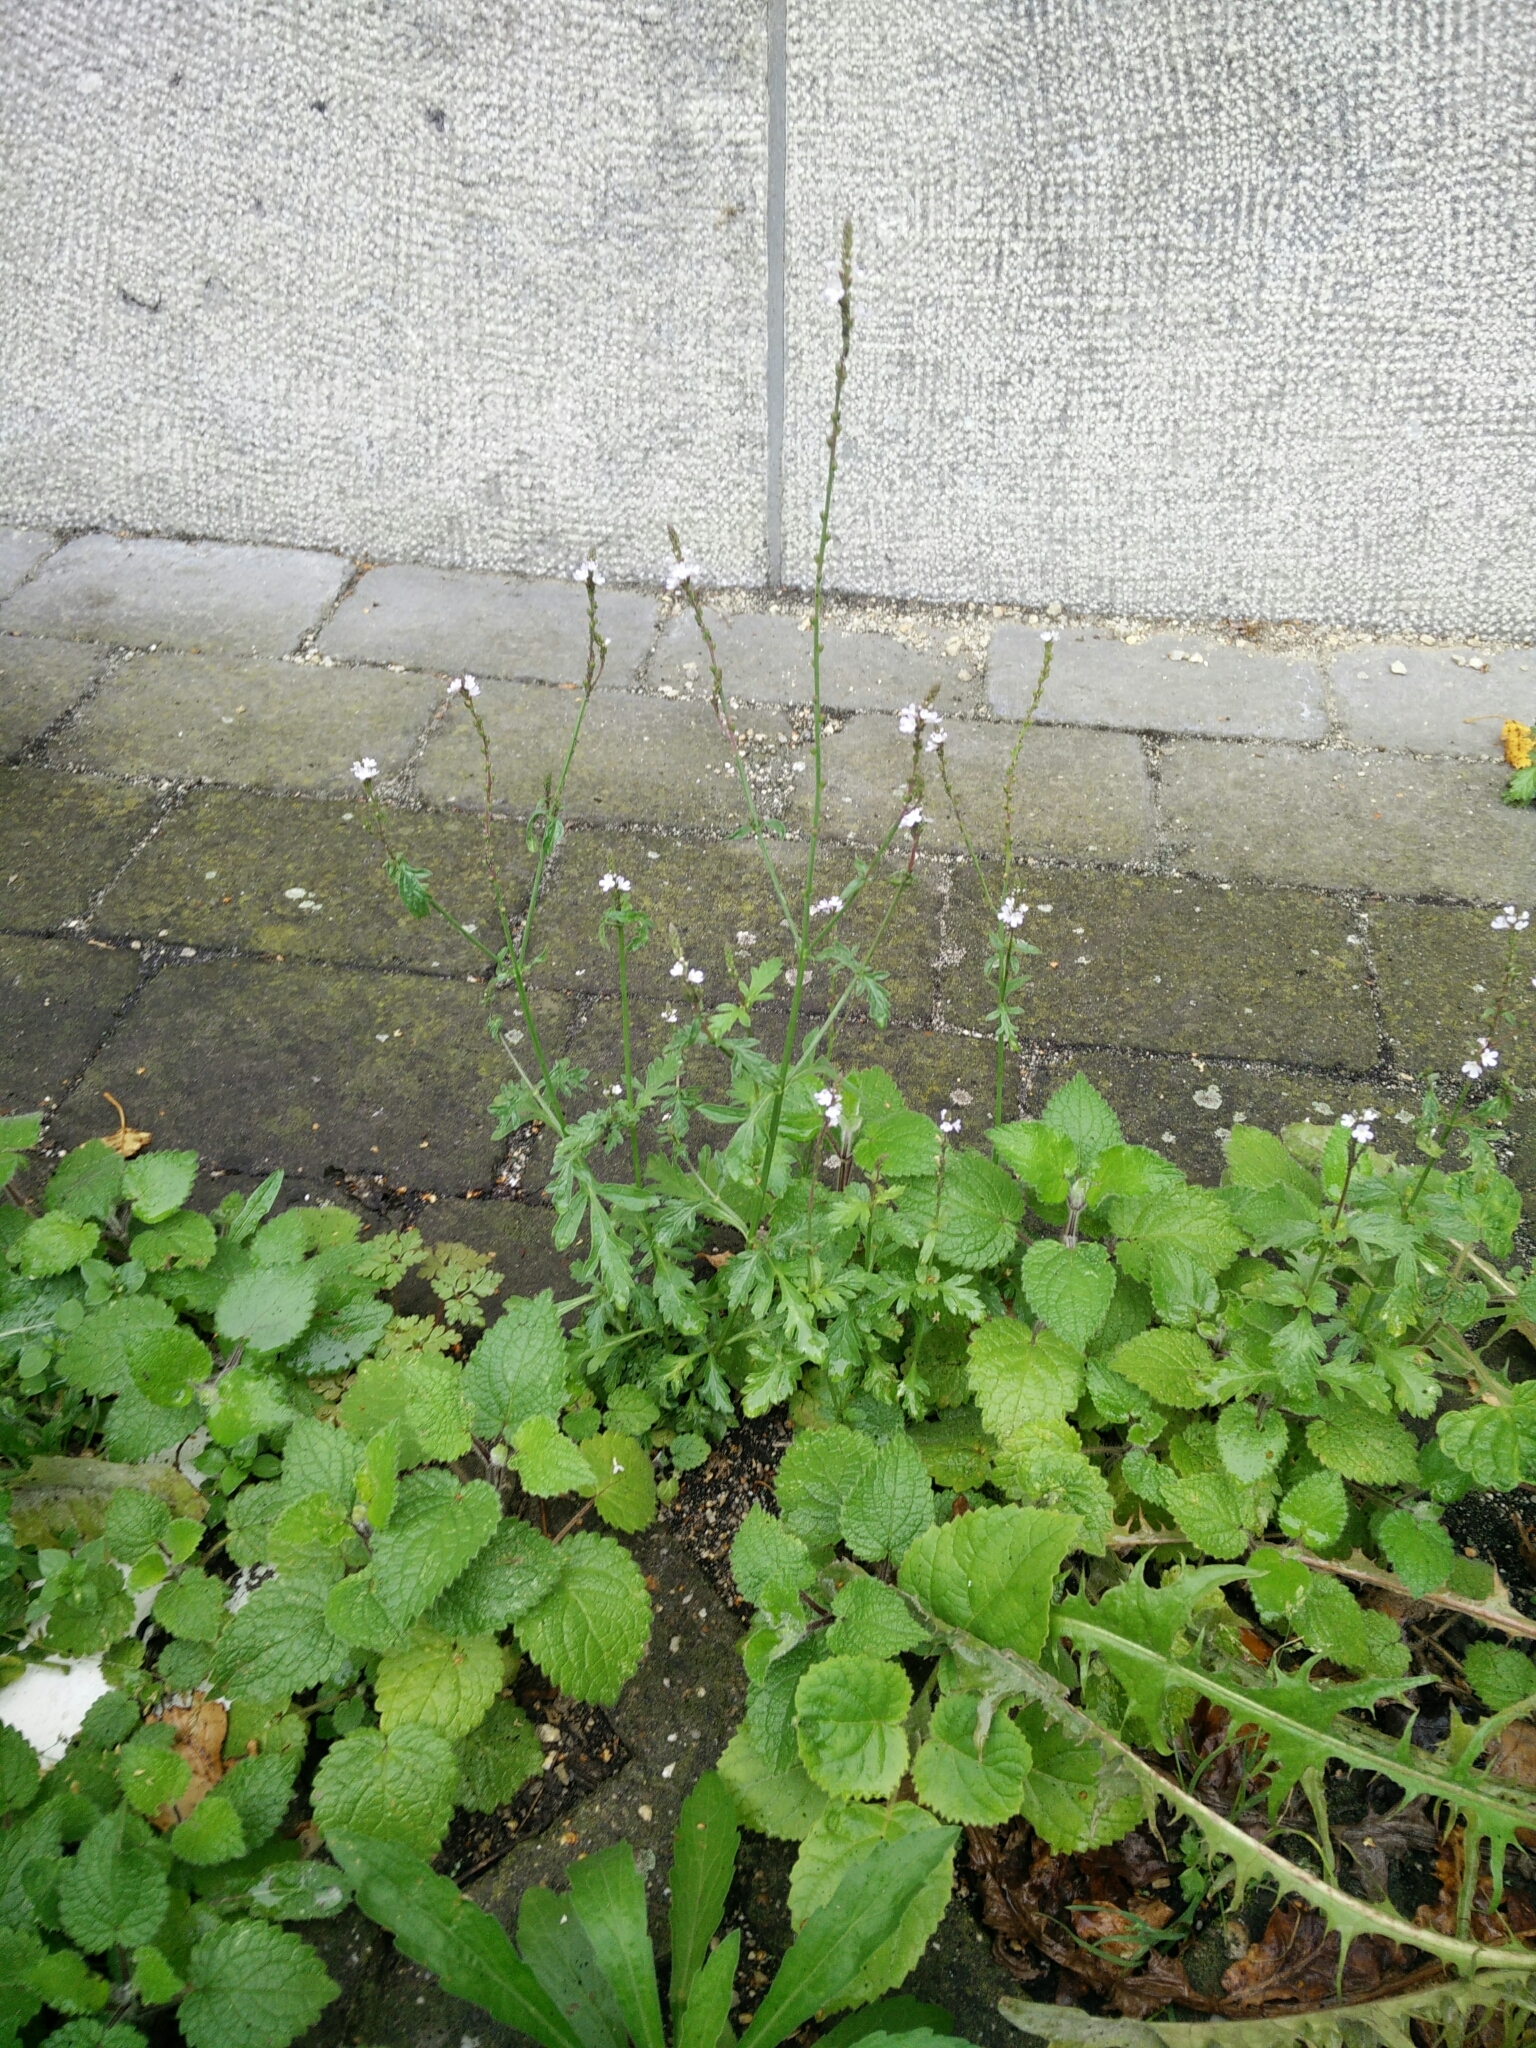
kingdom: Plantae
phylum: Tracheophyta
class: Magnoliopsida
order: Lamiales
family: Verbenaceae
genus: Verbena
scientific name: Verbena officinalis
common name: Vervain
